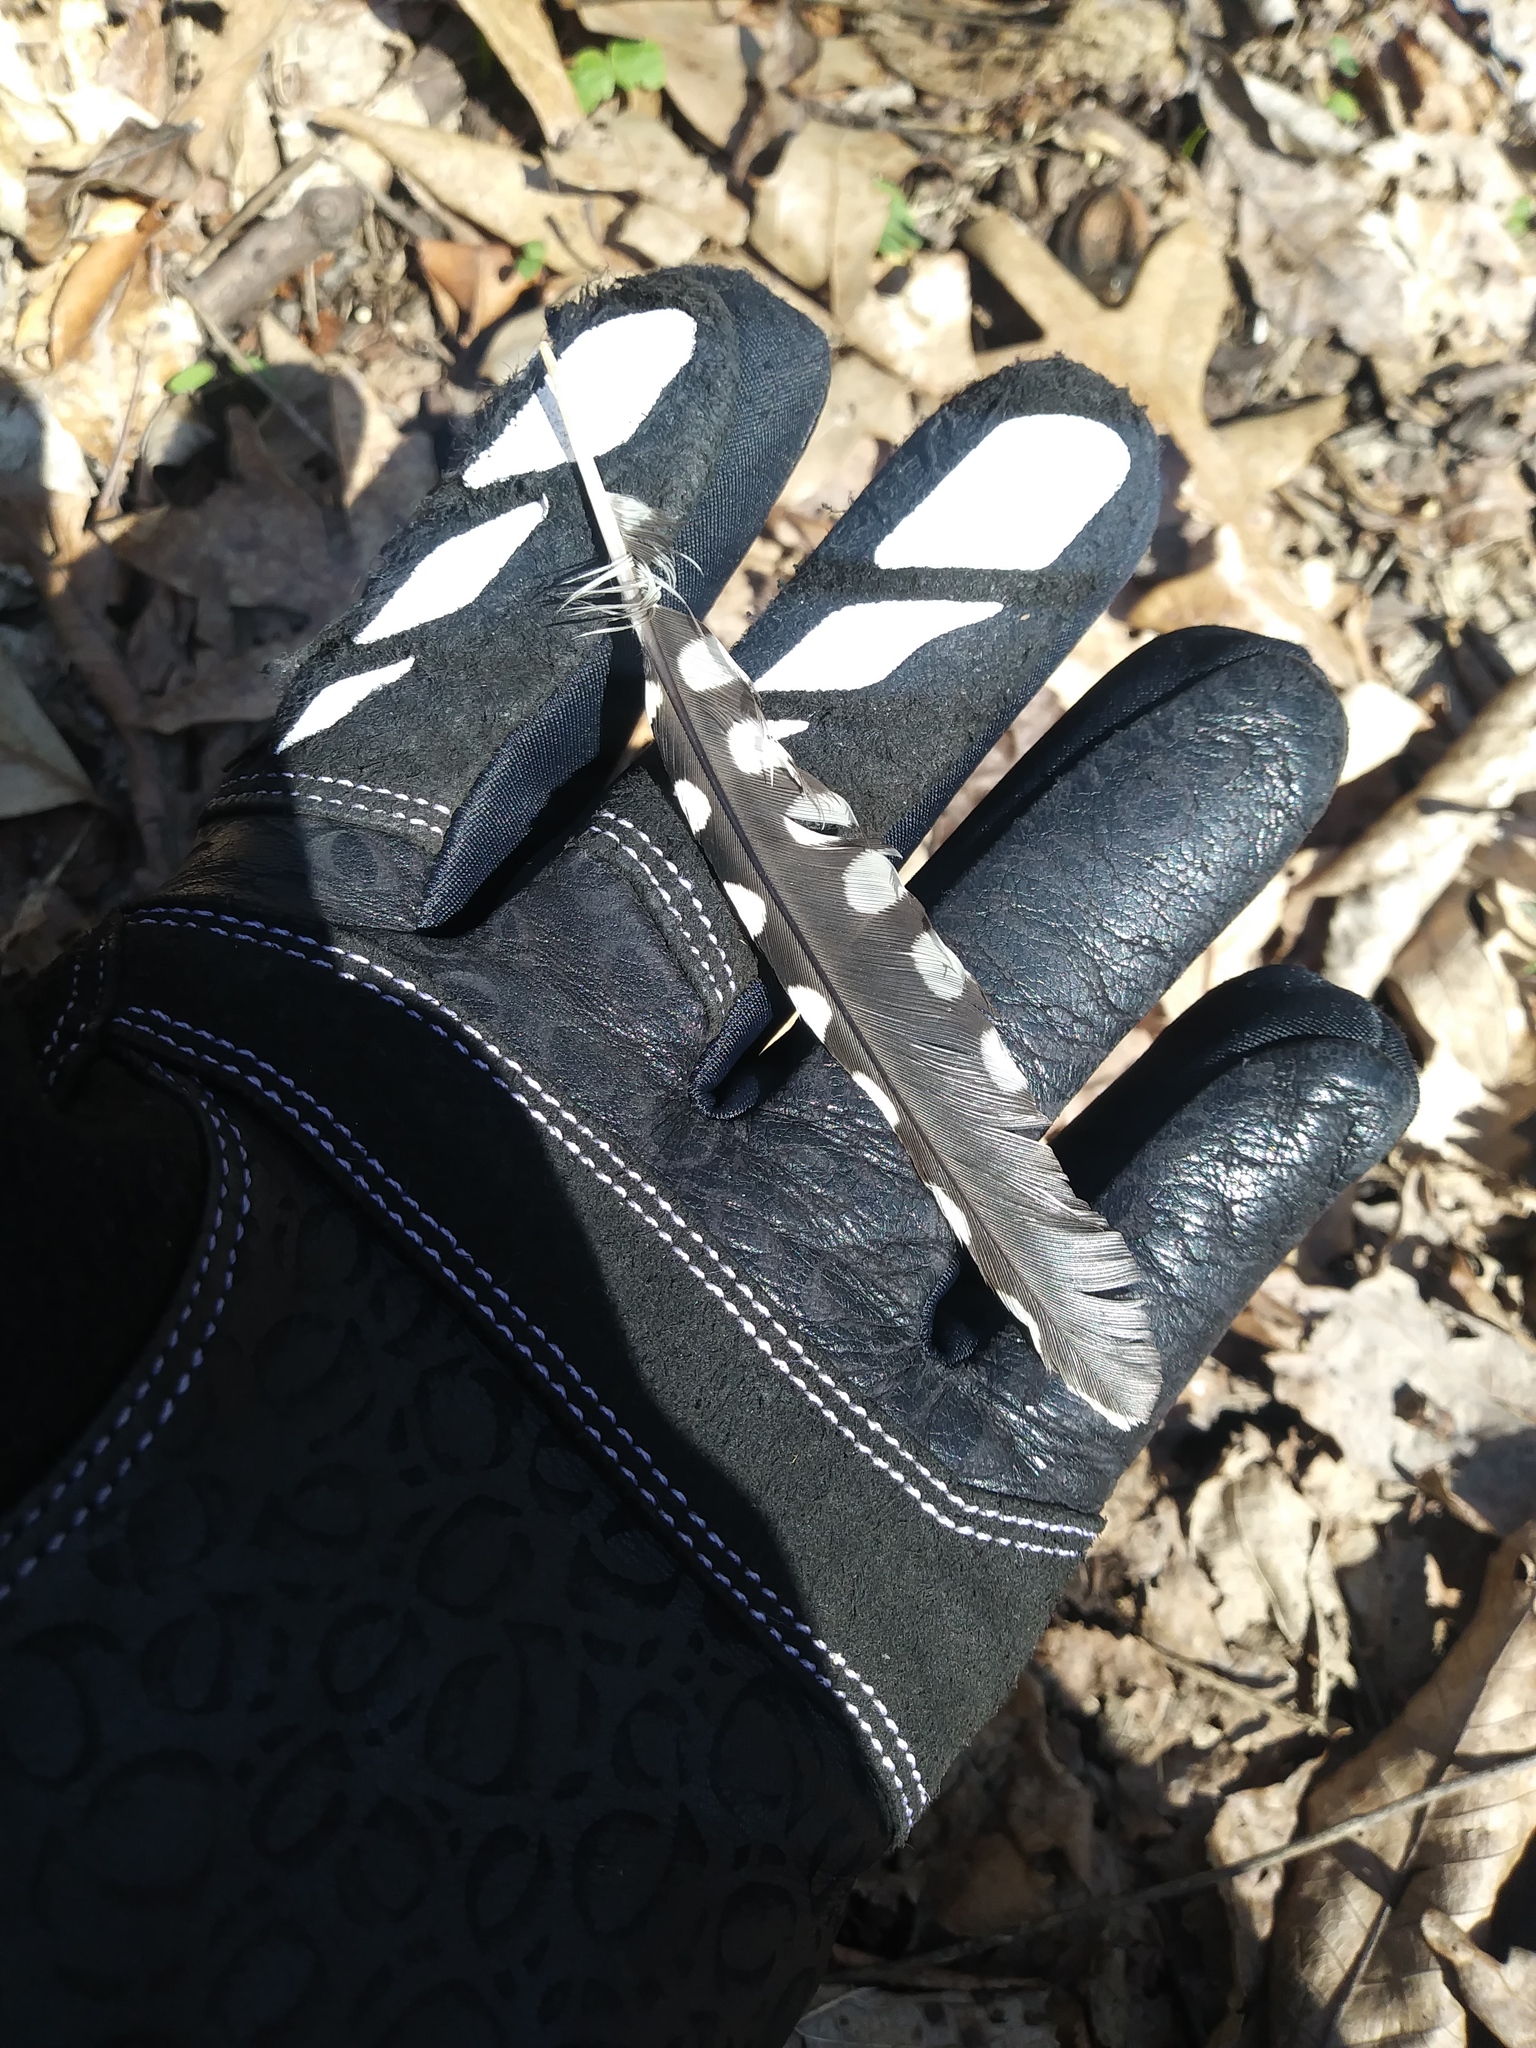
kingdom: Animalia
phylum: Chordata
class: Aves
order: Piciformes
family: Picidae
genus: Sphyrapicus
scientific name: Sphyrapicus varius
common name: Yellow-bellied sapsucker
